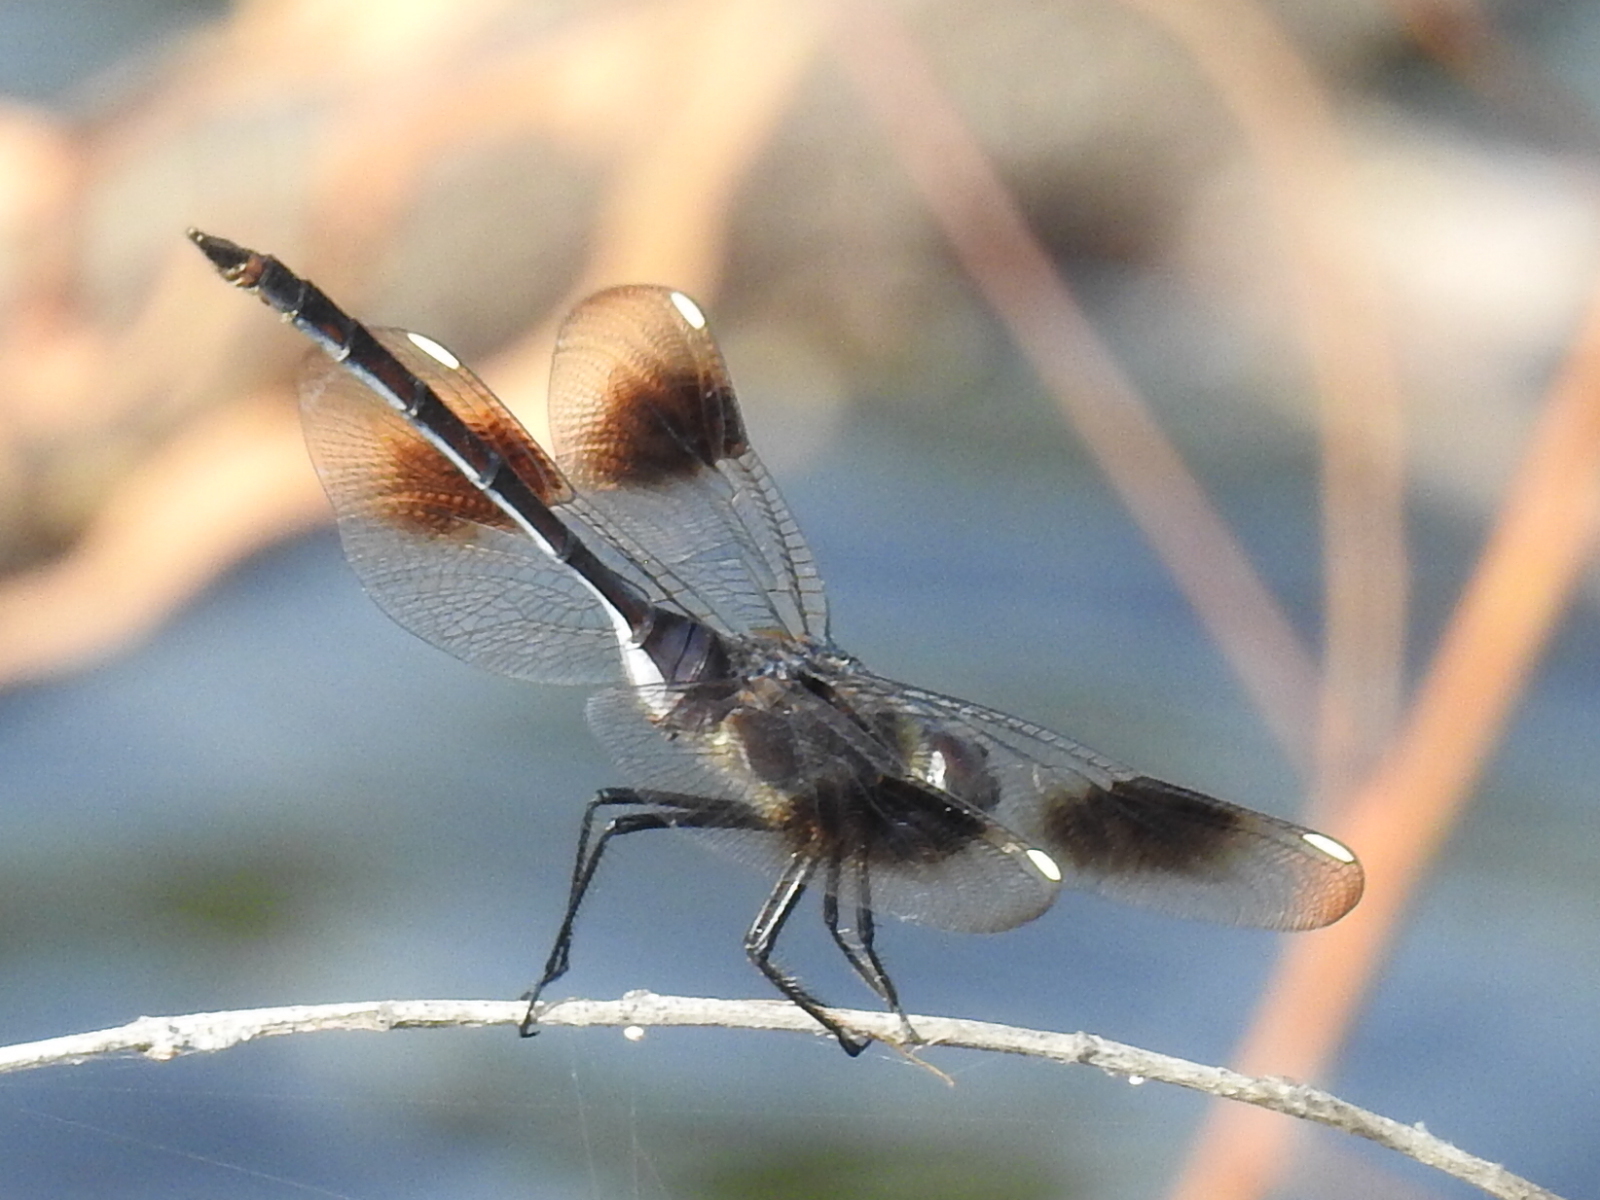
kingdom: Animalia
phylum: Arthropoda
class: Insecta
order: Odonata
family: Libellulidae
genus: Brachymesia
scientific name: Brachymesia gravida
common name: Four-spotted pennant
